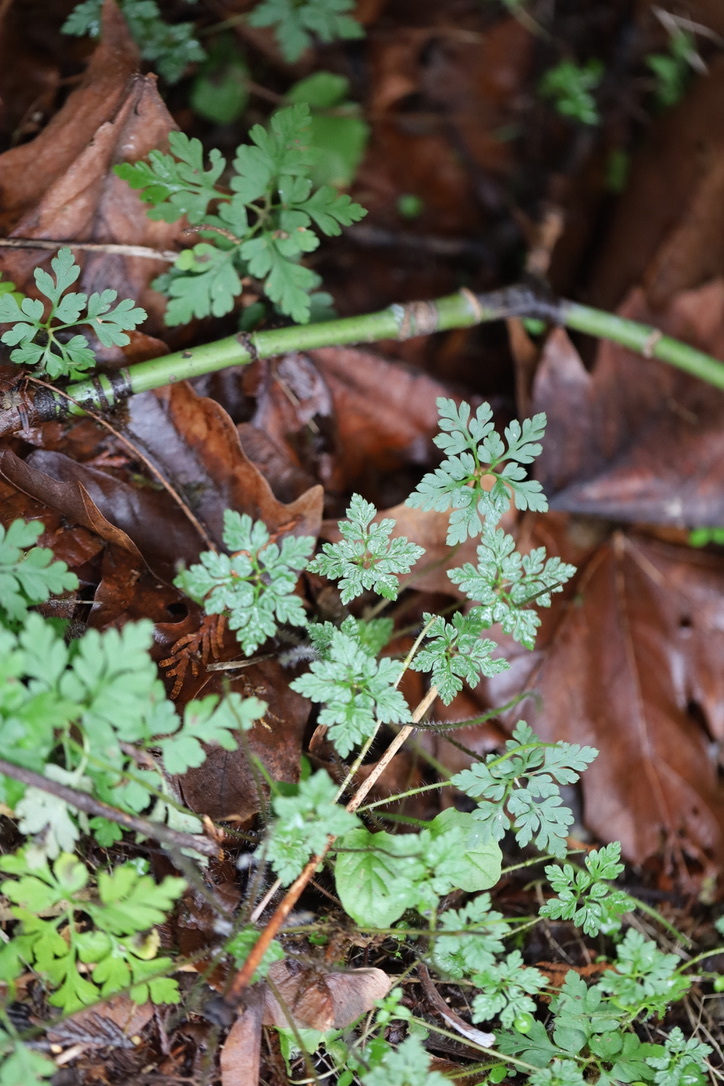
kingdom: Plantae
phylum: Tracheophyta
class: Magnoliopsida
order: Geraniales
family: Geraniaceae
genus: Geranium
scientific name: Geranium robertianum
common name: Herb-robert
